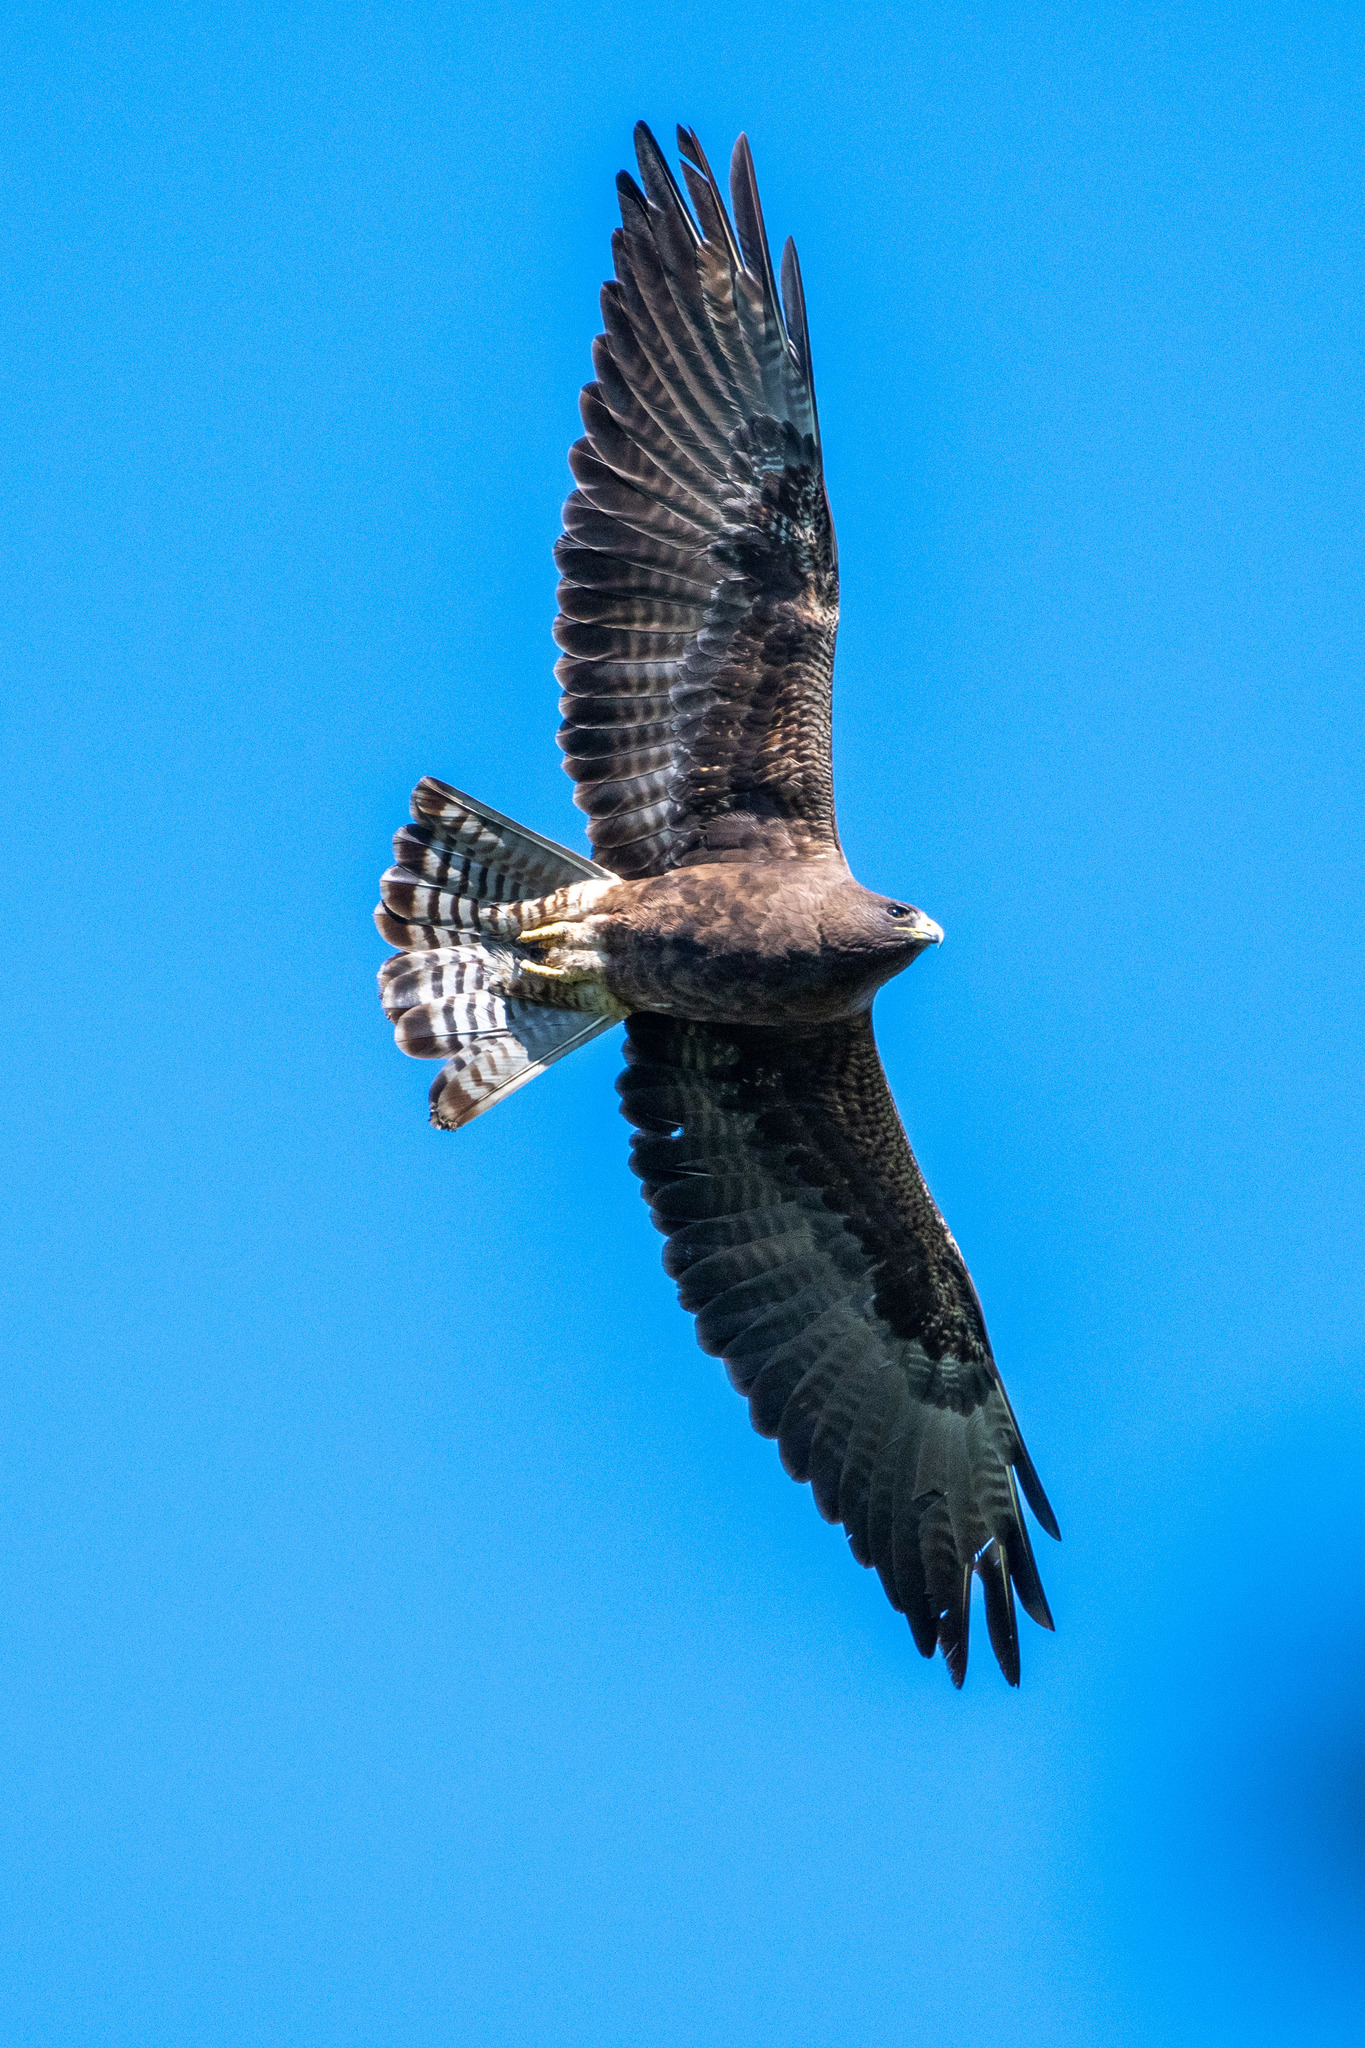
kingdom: Animalia
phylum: Chordata
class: Aves
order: Accipitriformes
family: Accipitridae
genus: Buteo
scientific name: Buteo swainsoni
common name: Swainson's hawk
